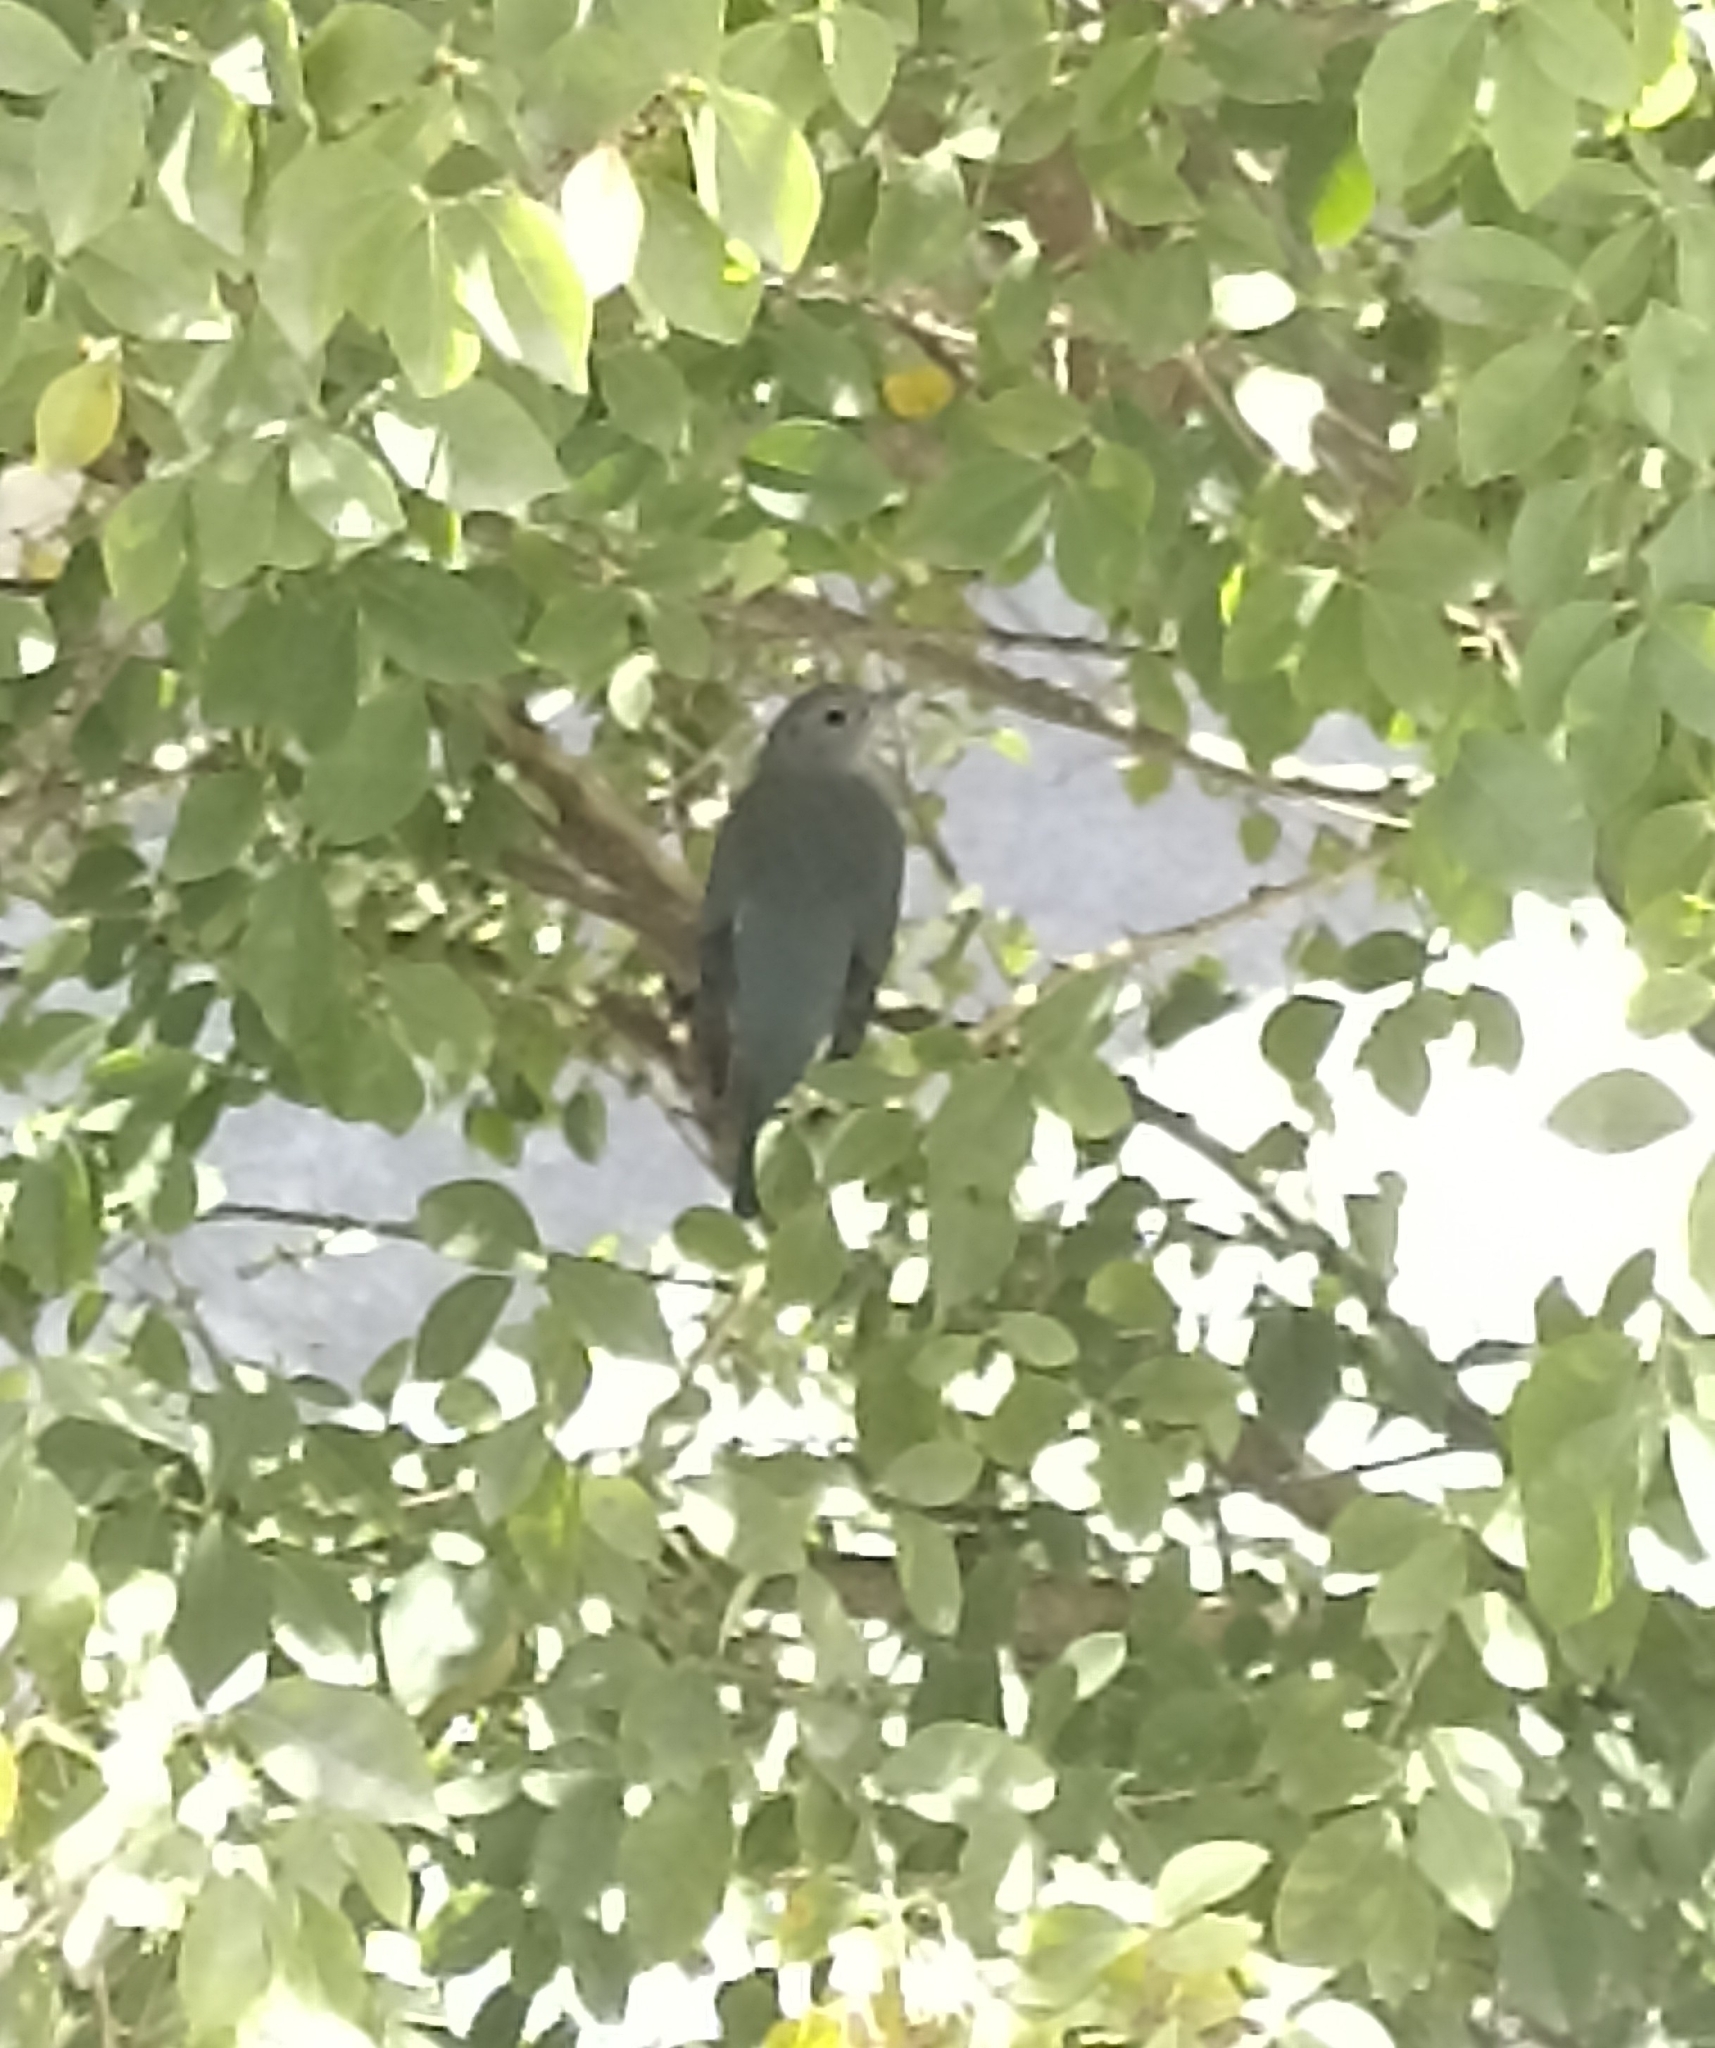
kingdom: Animalia
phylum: Chordata
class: Aves
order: Passeriformes
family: Thraupidae
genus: Thraupis
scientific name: Thraupis sayaca
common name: Sayaca tanager
